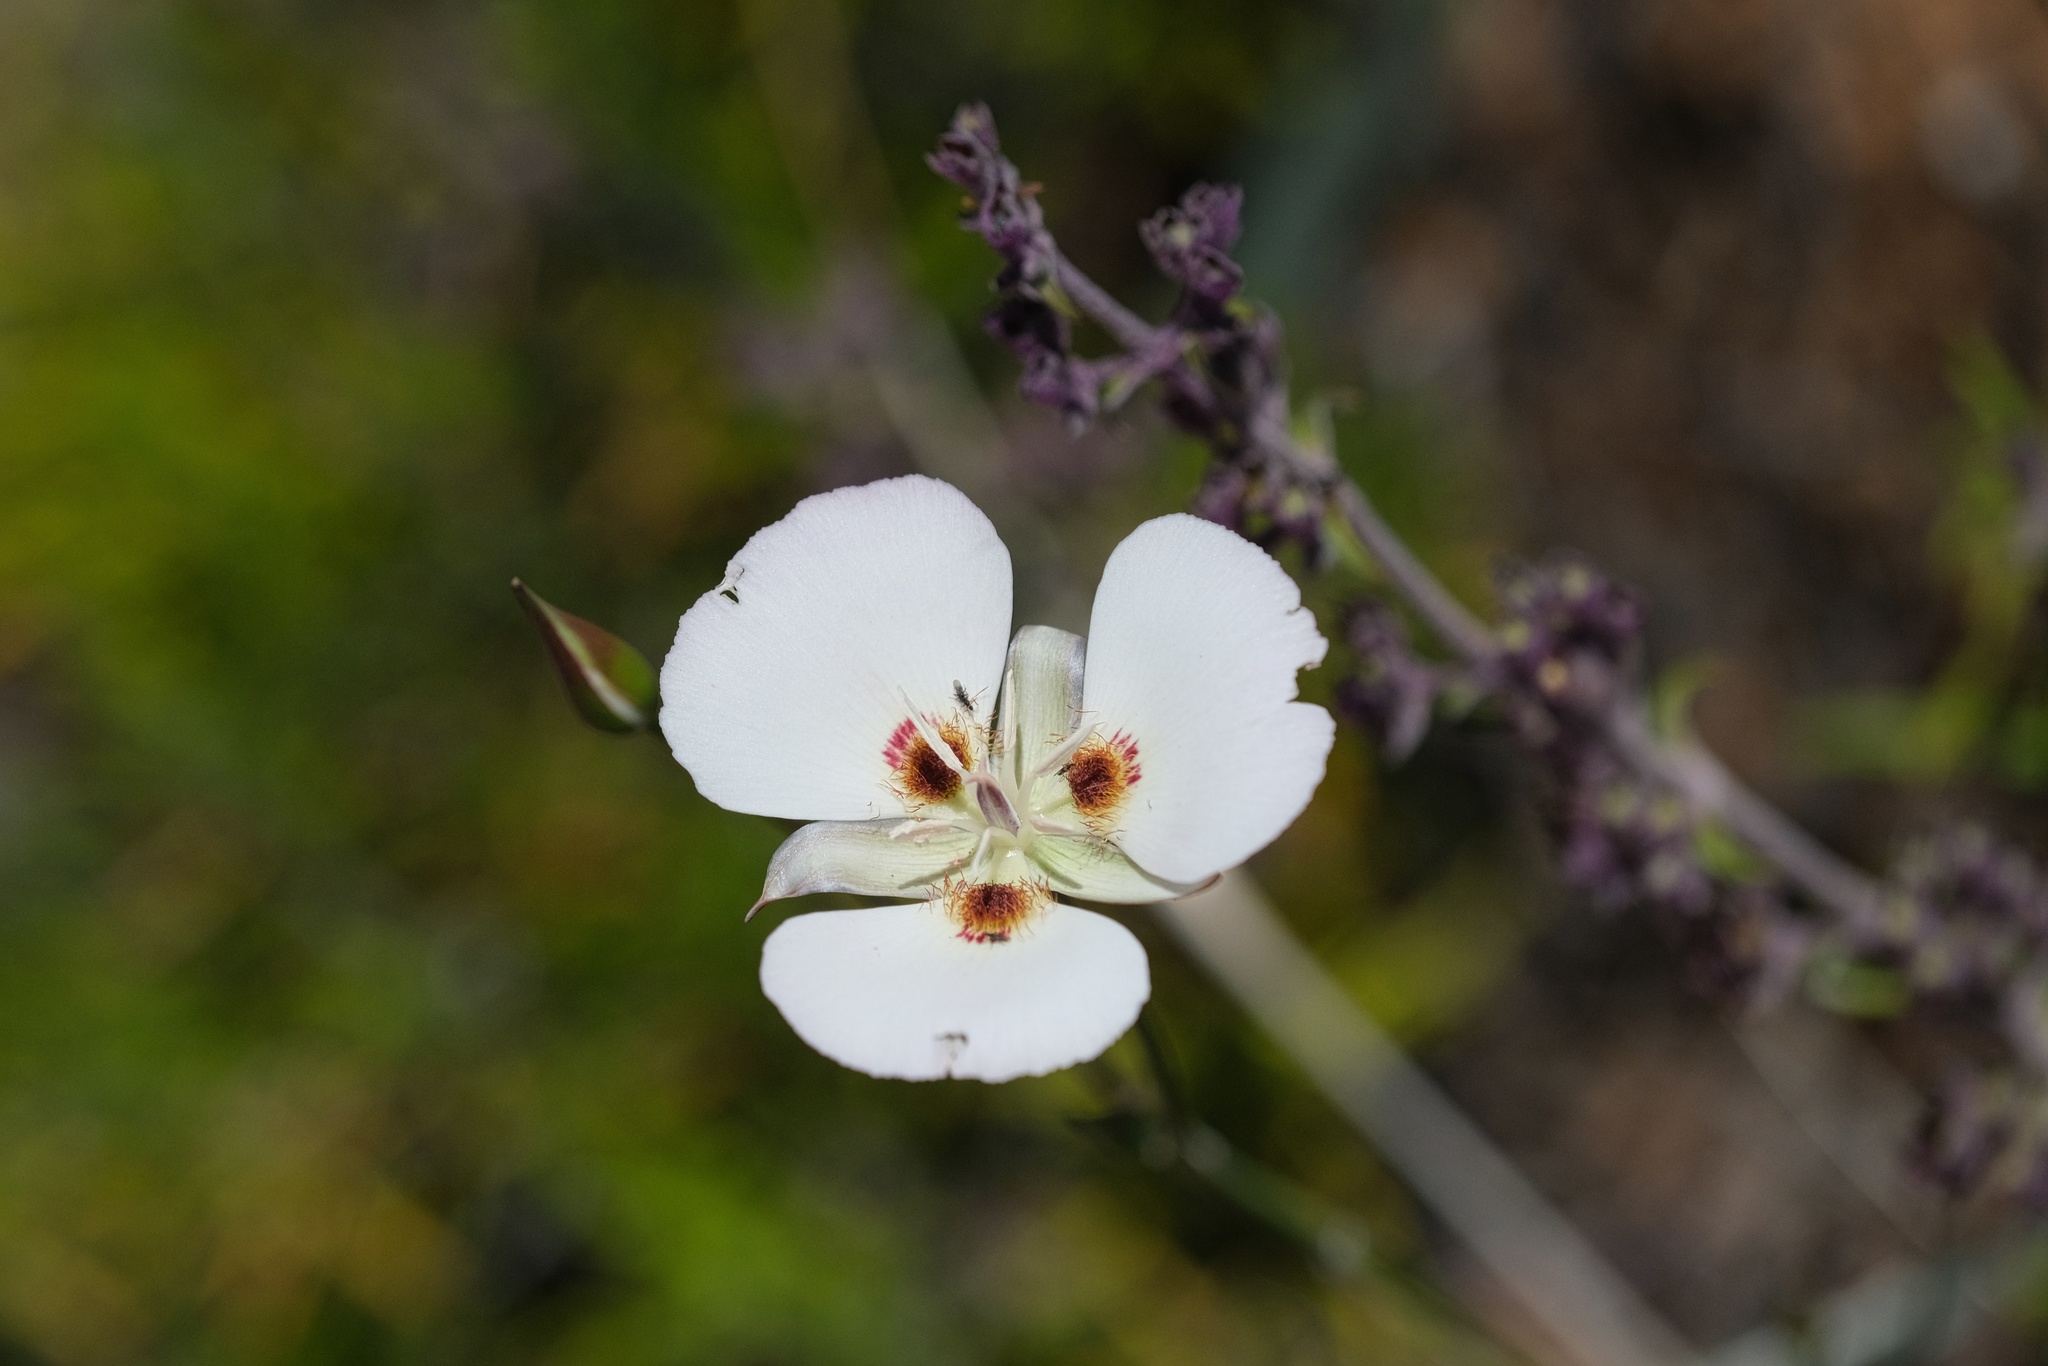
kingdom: Plantae
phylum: Tracheophyta
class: Liliopsida
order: Liliales
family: Liliaceae
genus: Calochortus
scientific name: Calochortus dunnii
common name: Dunn's mariposa-lily
